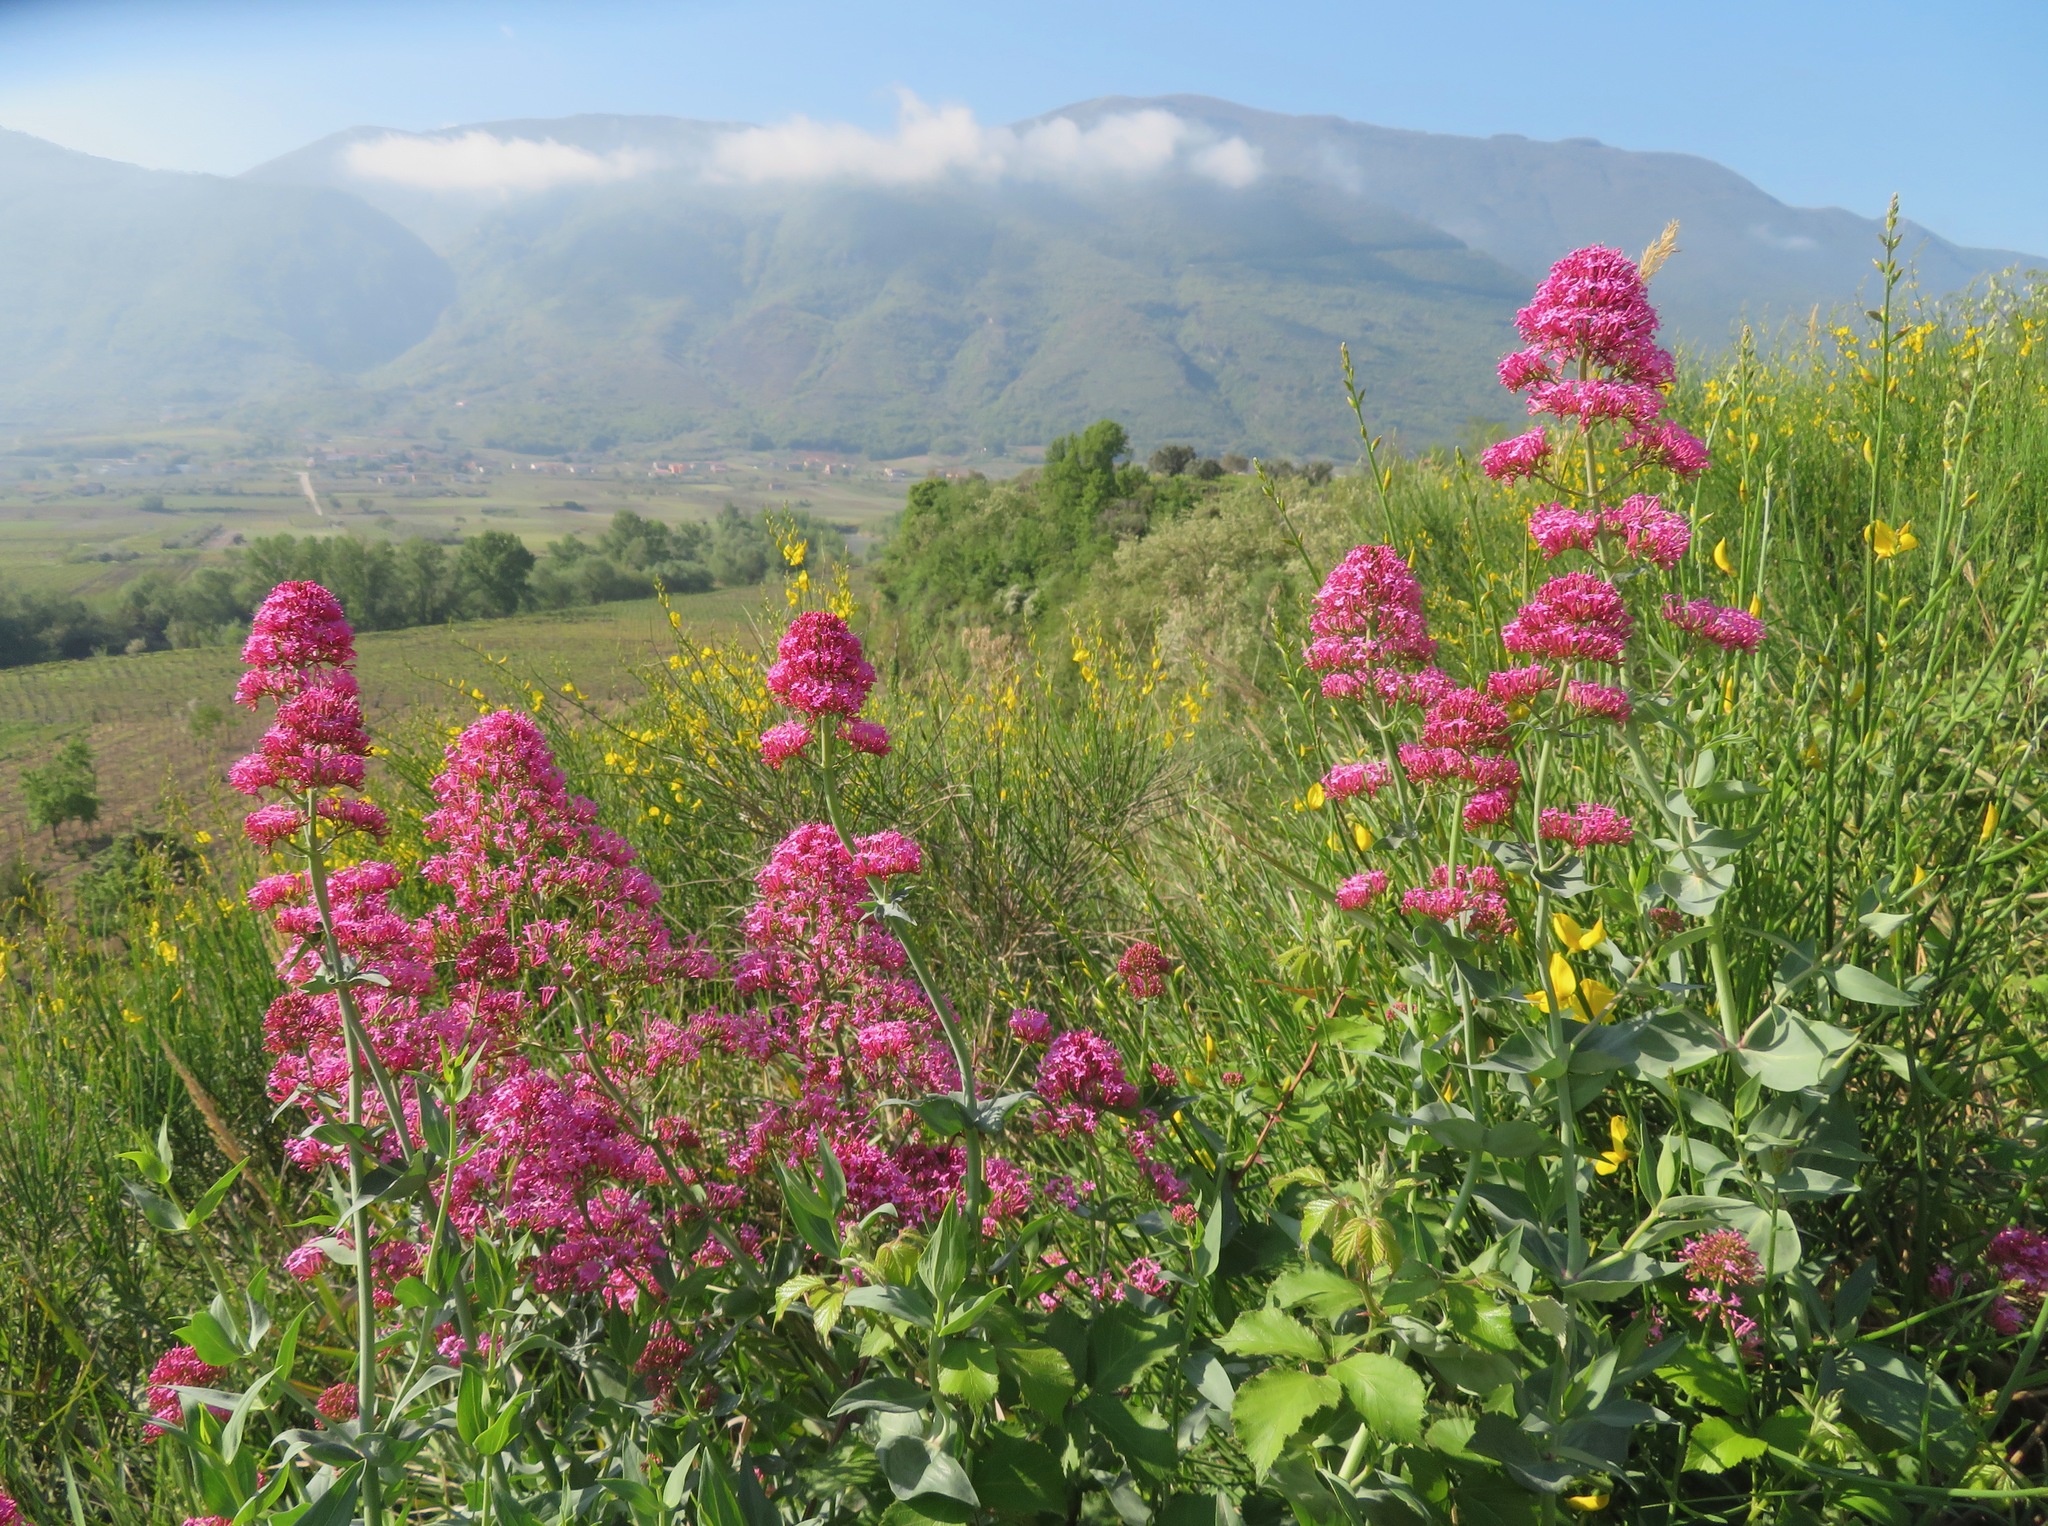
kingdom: Plantae
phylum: Tracheophyta
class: Magnoliopsida
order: Dipsacales
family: Caprifoliaceae
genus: Centranthus
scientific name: Centranthus ruber
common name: Red valerian
